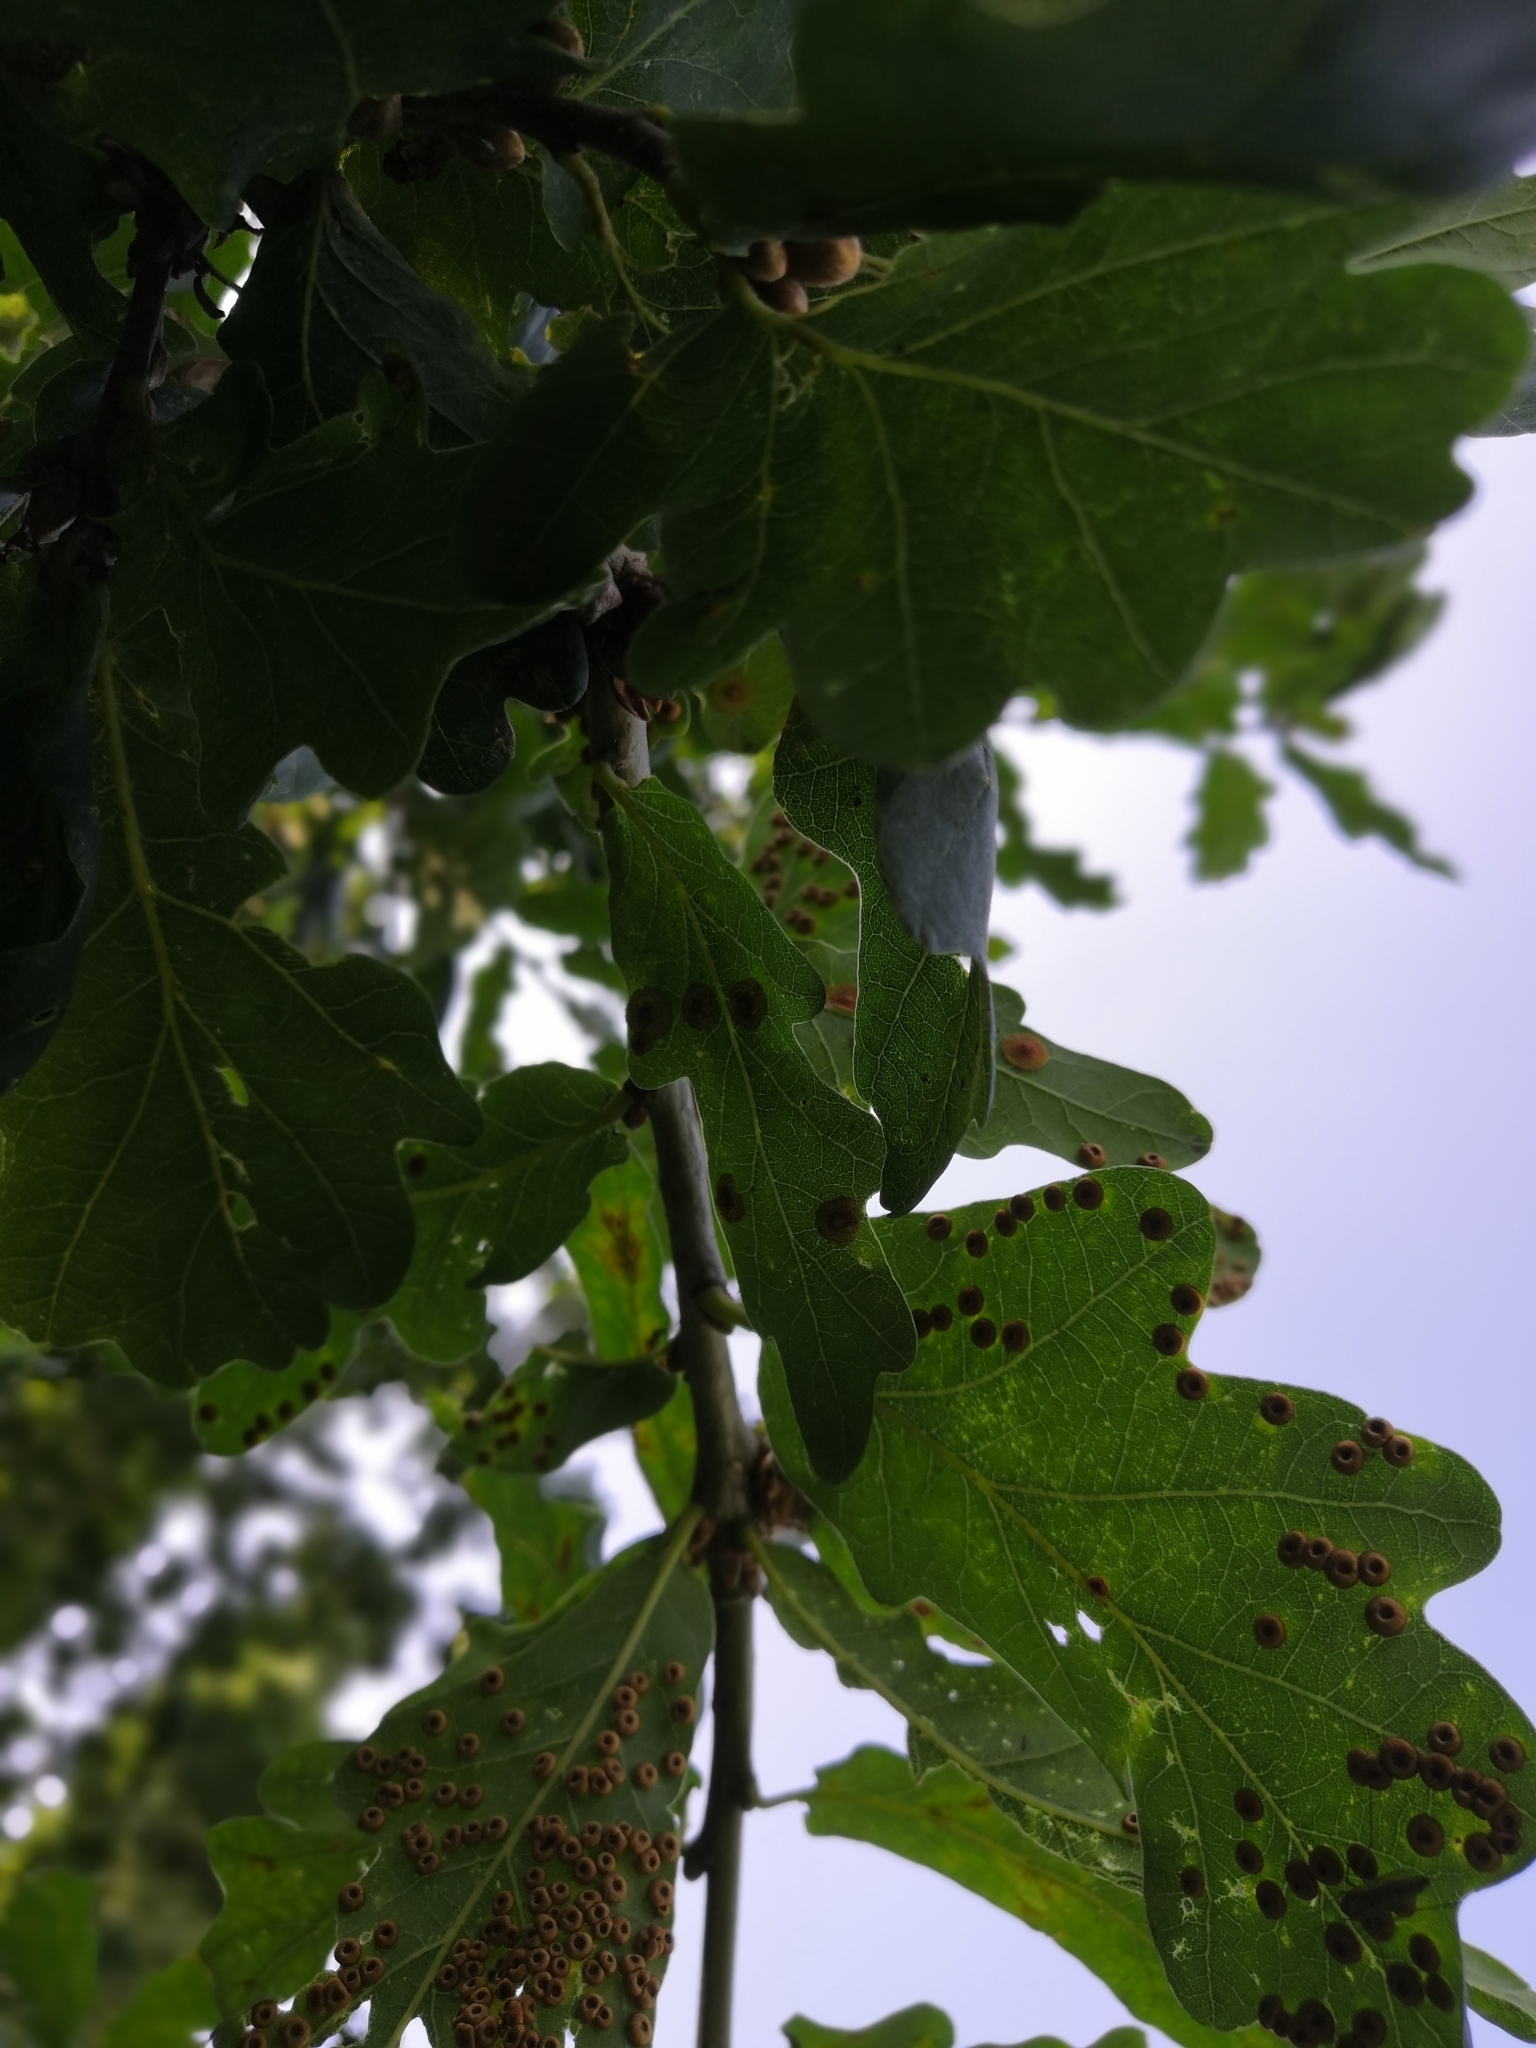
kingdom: Animalia
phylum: Arthropoda
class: Insecta
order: Hymenoptera
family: Cynipidae
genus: Neuroterus
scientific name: Neuroterus numismalis
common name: Silk-button spangle gall
